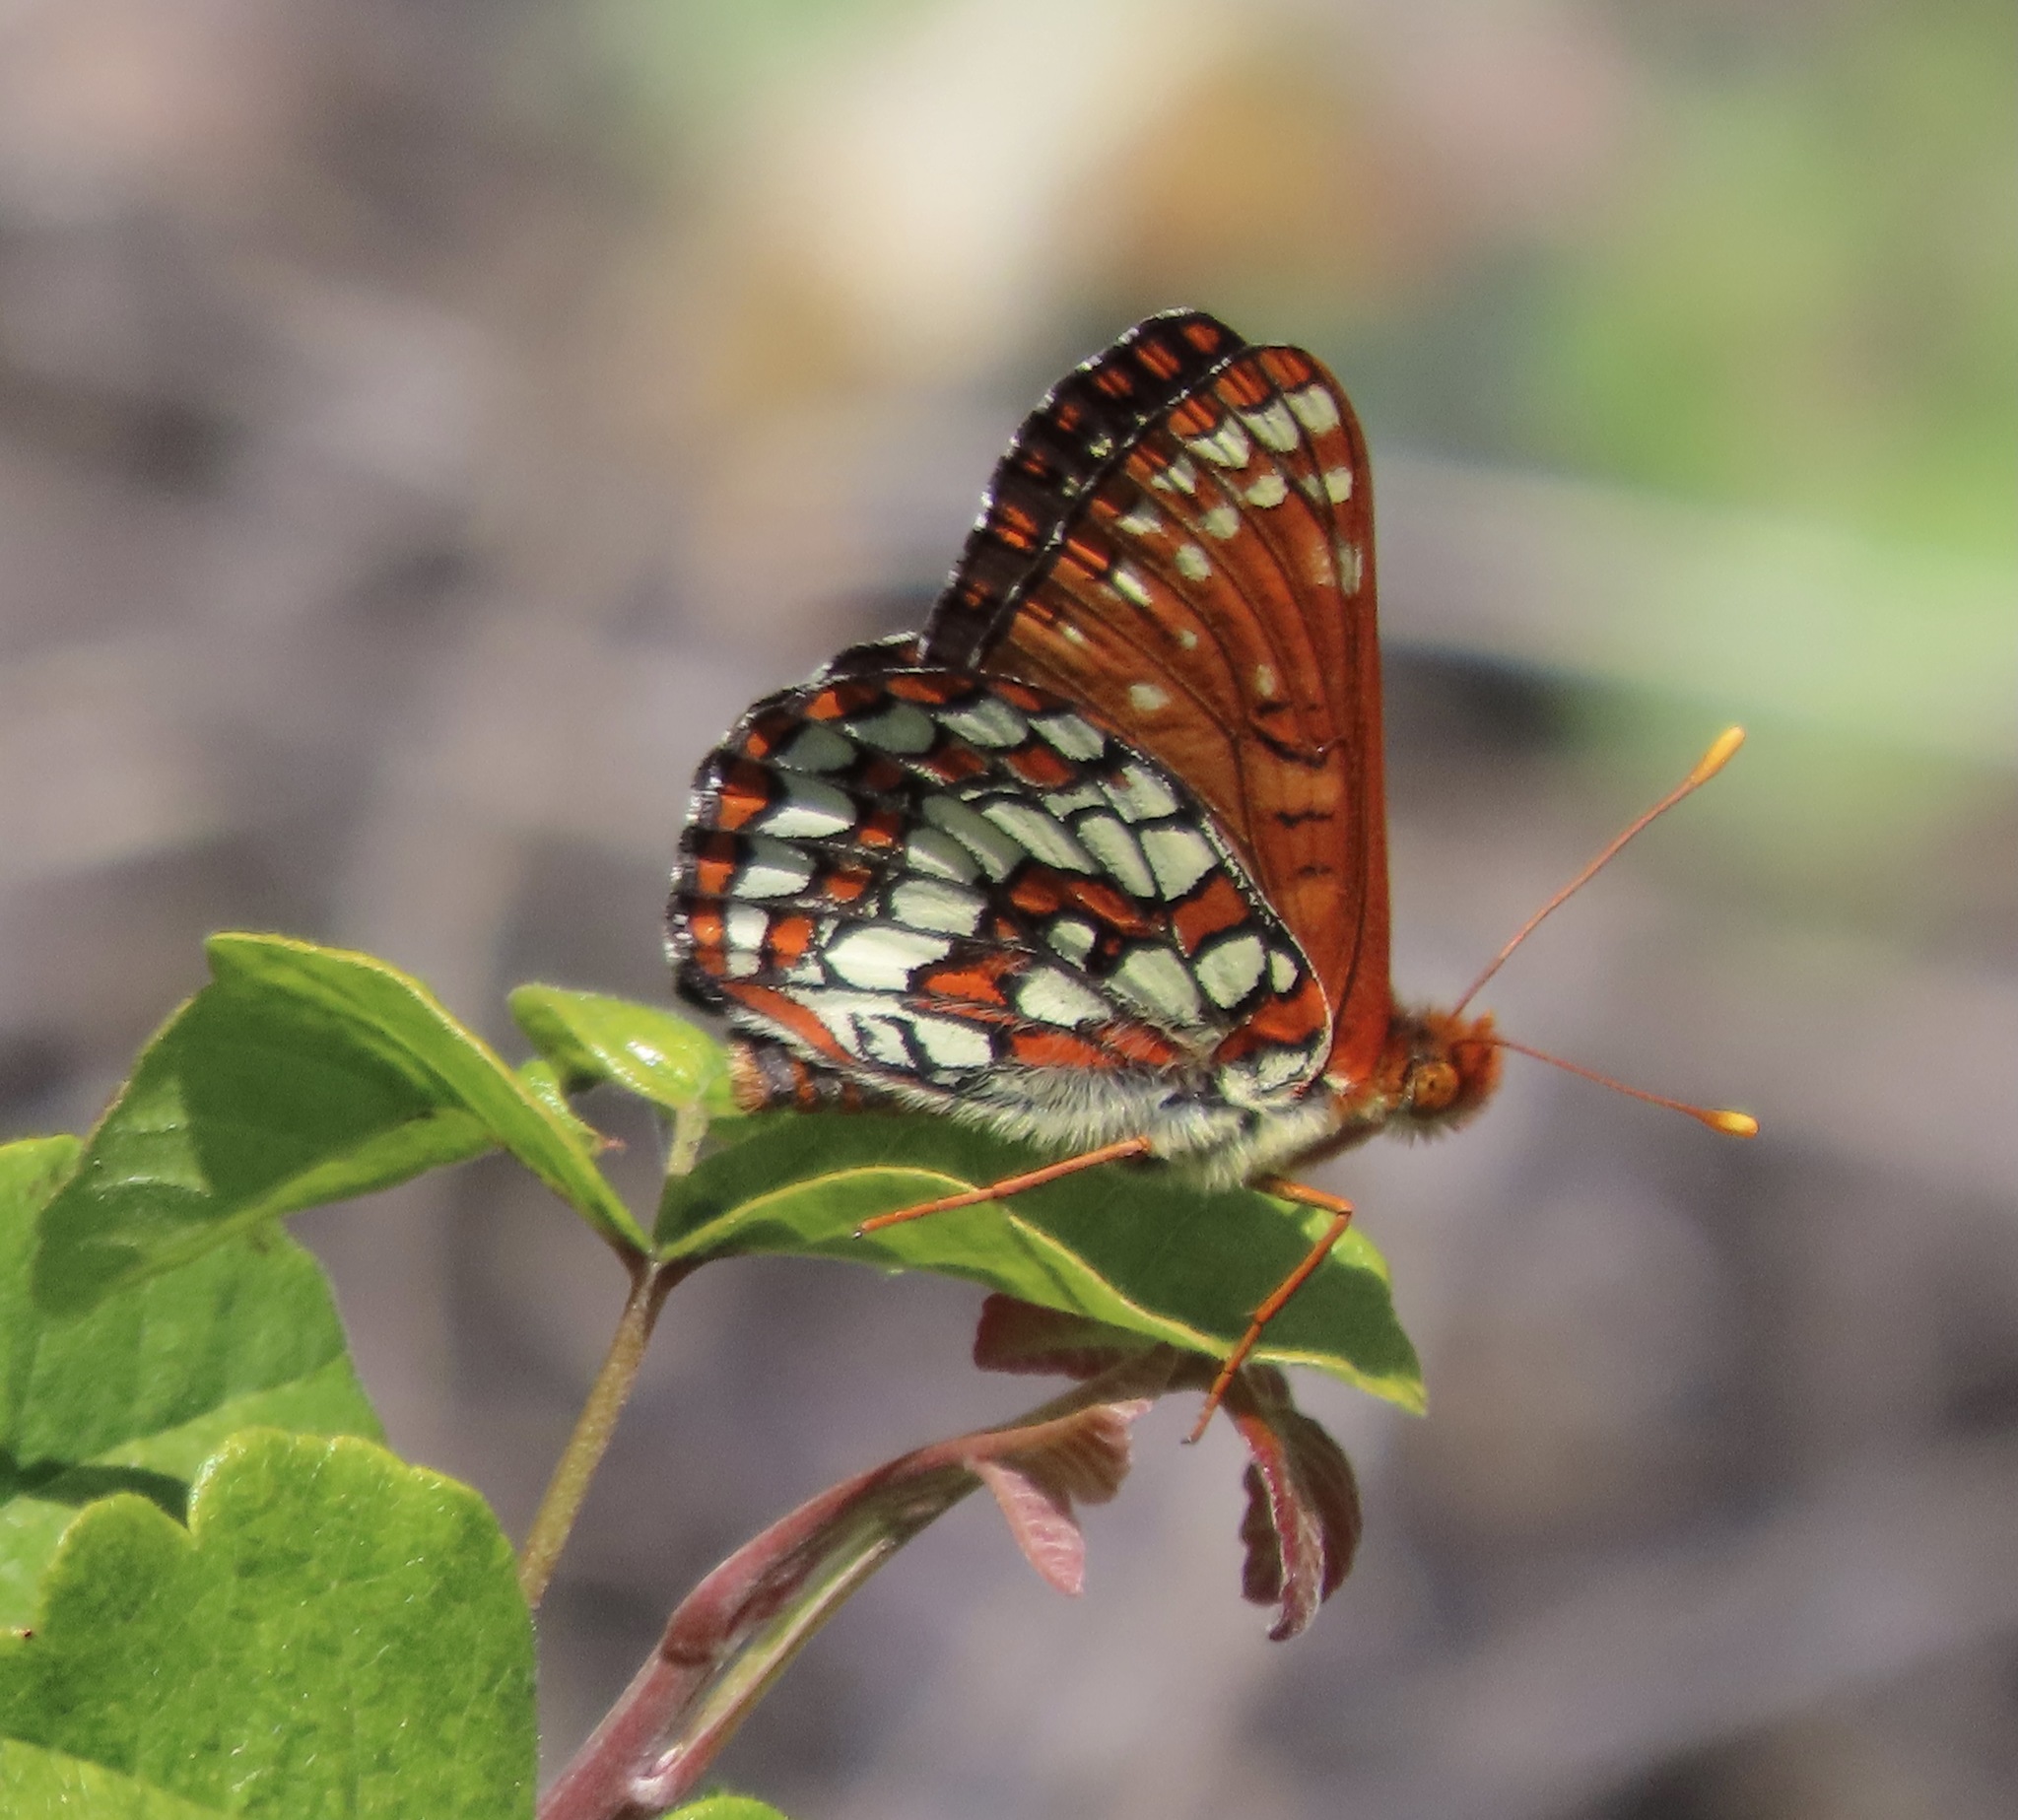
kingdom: Animalia
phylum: Arthropoda
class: Insecta
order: Lepidoptera
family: Nymphalidae
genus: Occidryas
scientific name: Occidryas chalcedona
